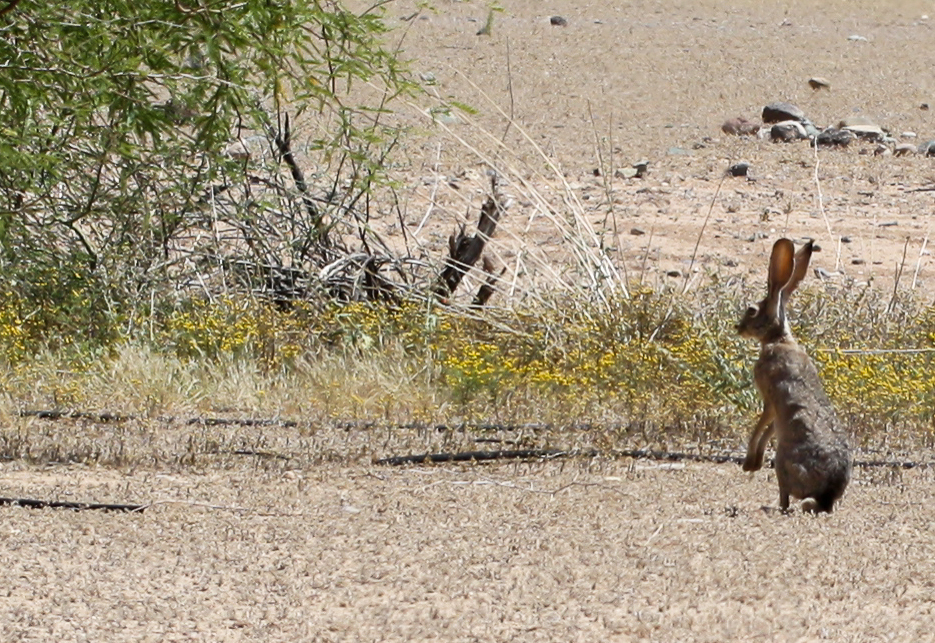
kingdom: Animalia
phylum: Chordata
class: Mammalia
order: Lagomorpha
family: Leporidae
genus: Lepus
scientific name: Lepus californicus
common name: Black-tailed jackrabbit
